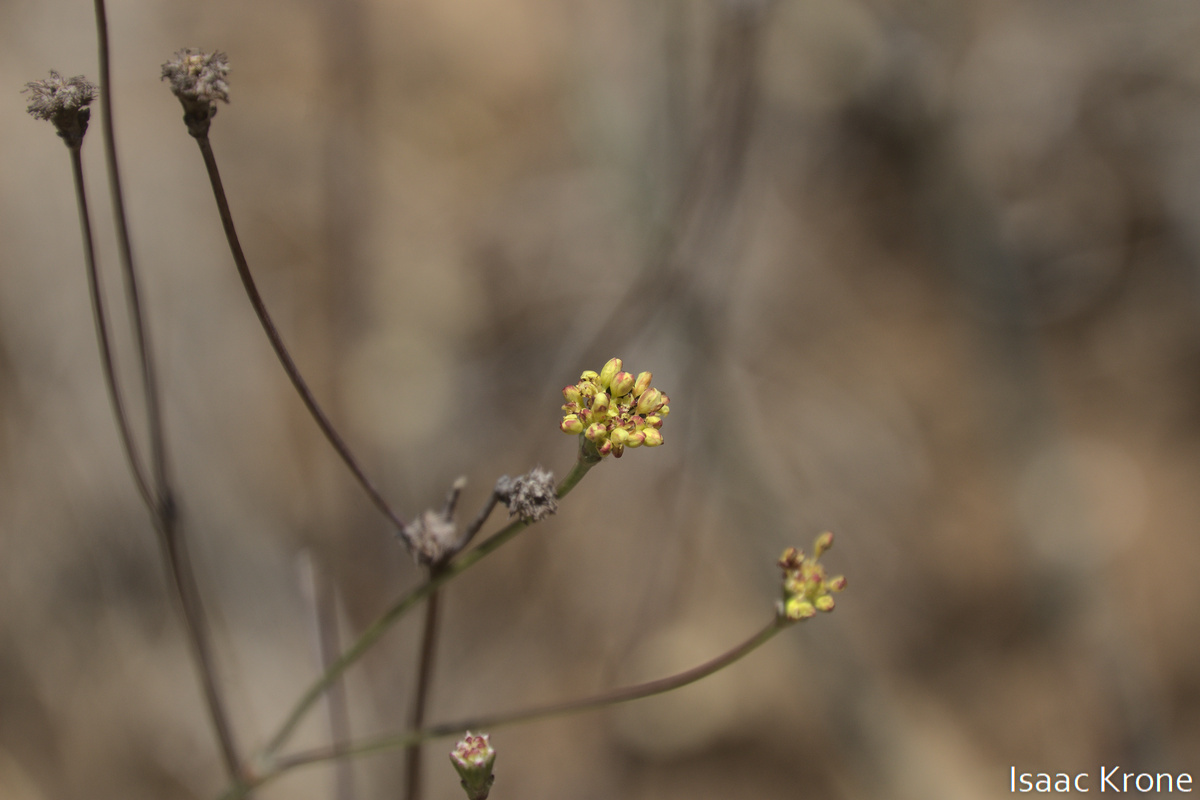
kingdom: Plantae
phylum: Tracheophyta
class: Magnoliopsida
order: Caryophyllales
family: Polygonaceae
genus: Eriogonum
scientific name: Eriogonum nudum
